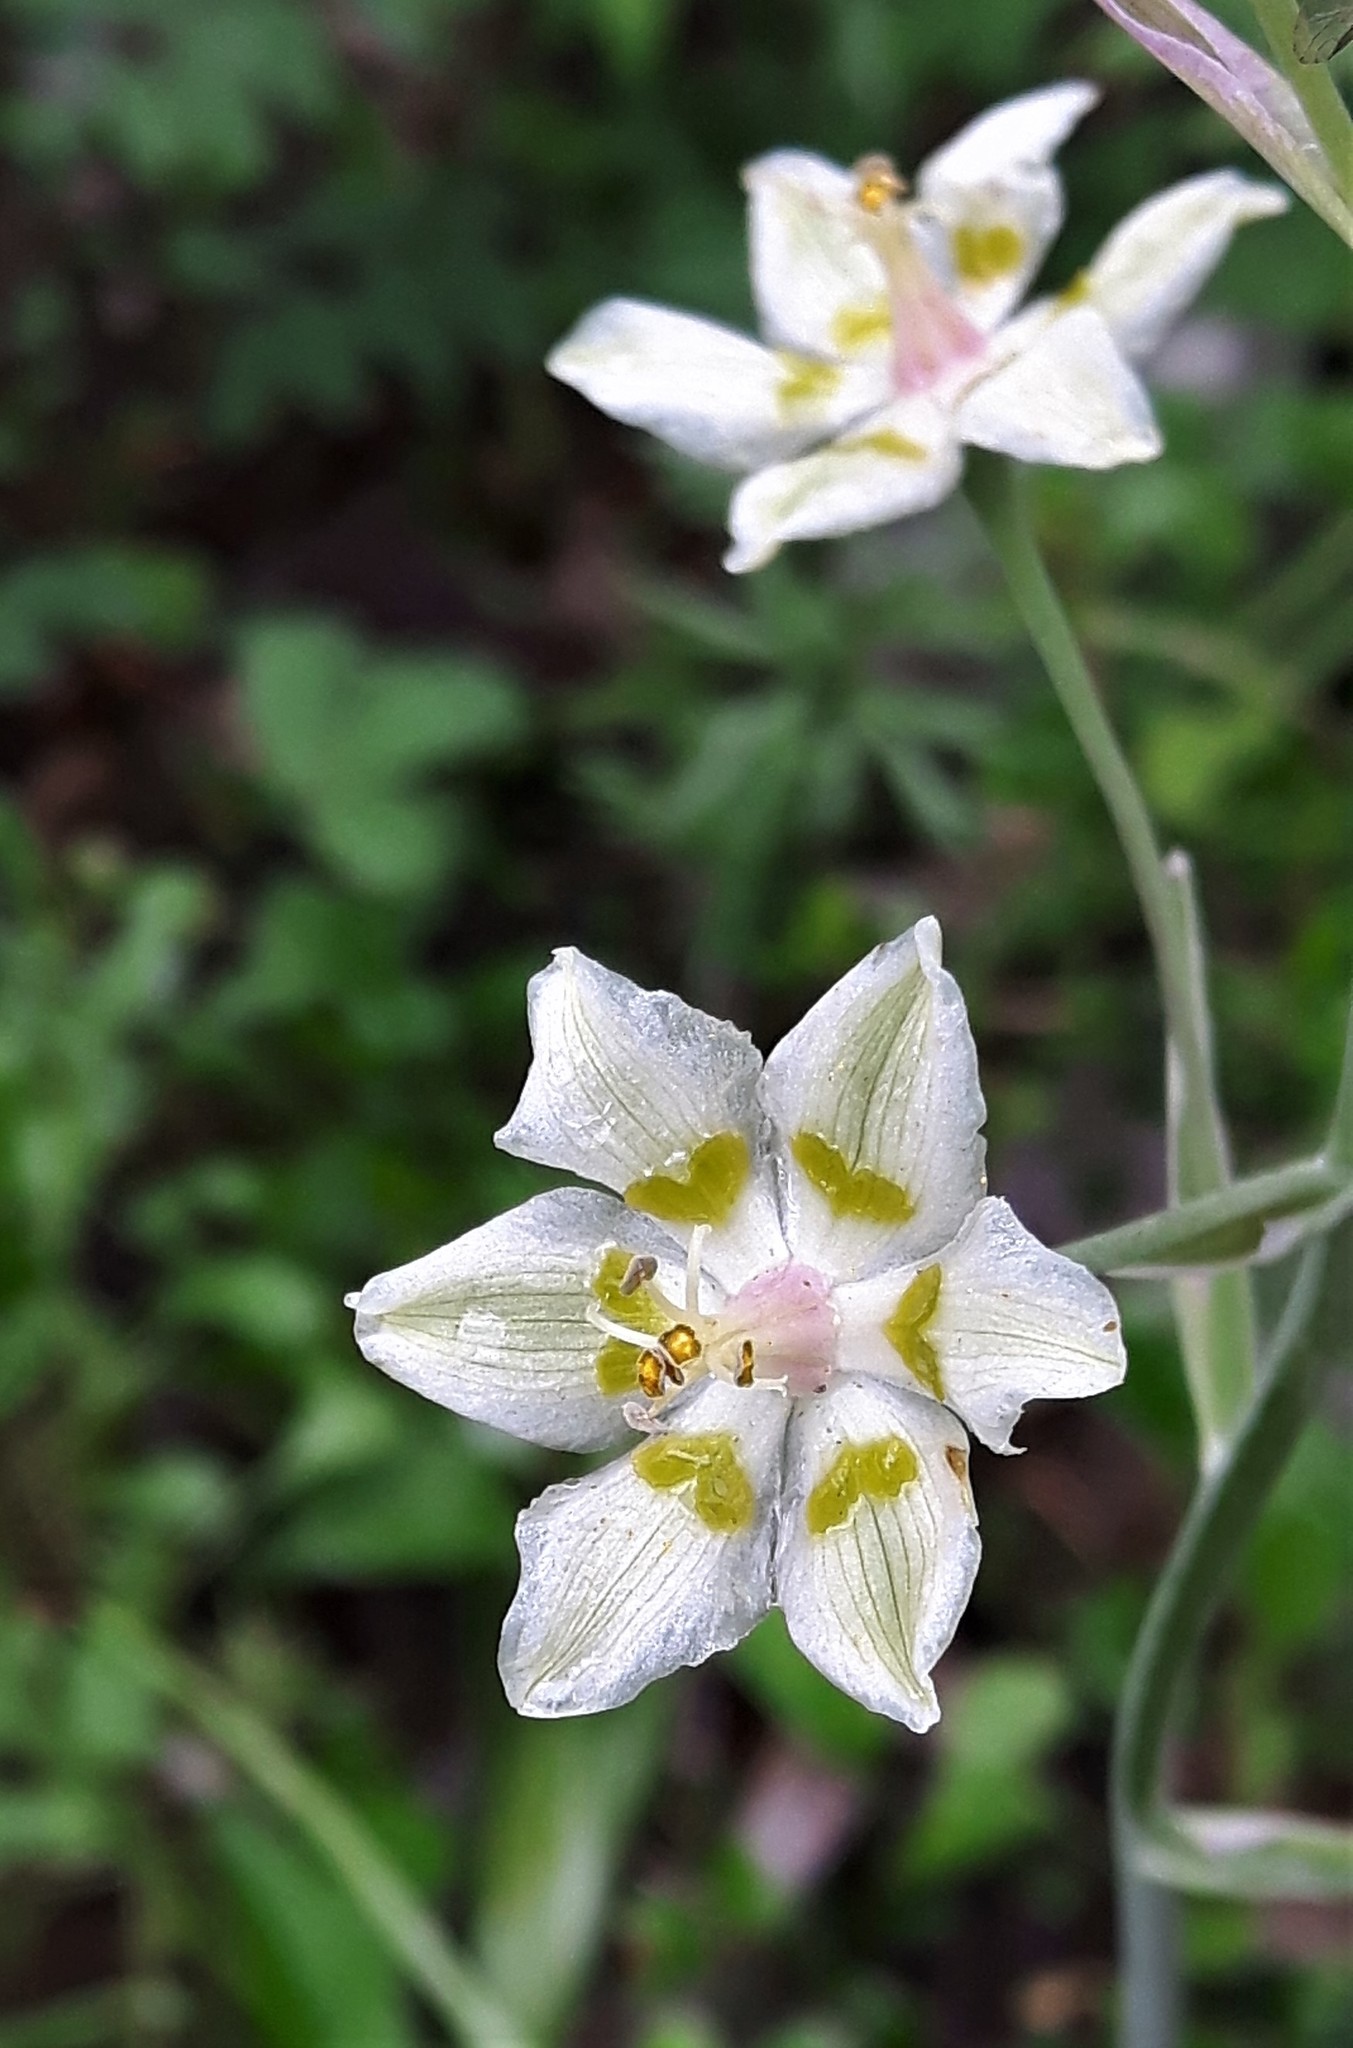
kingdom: Plantae
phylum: Tracheophyta
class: Liliopsida
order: Liliales
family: Melanthiaceae
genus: Anticlea
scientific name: Anticlea elegans
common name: Mountain death camas
